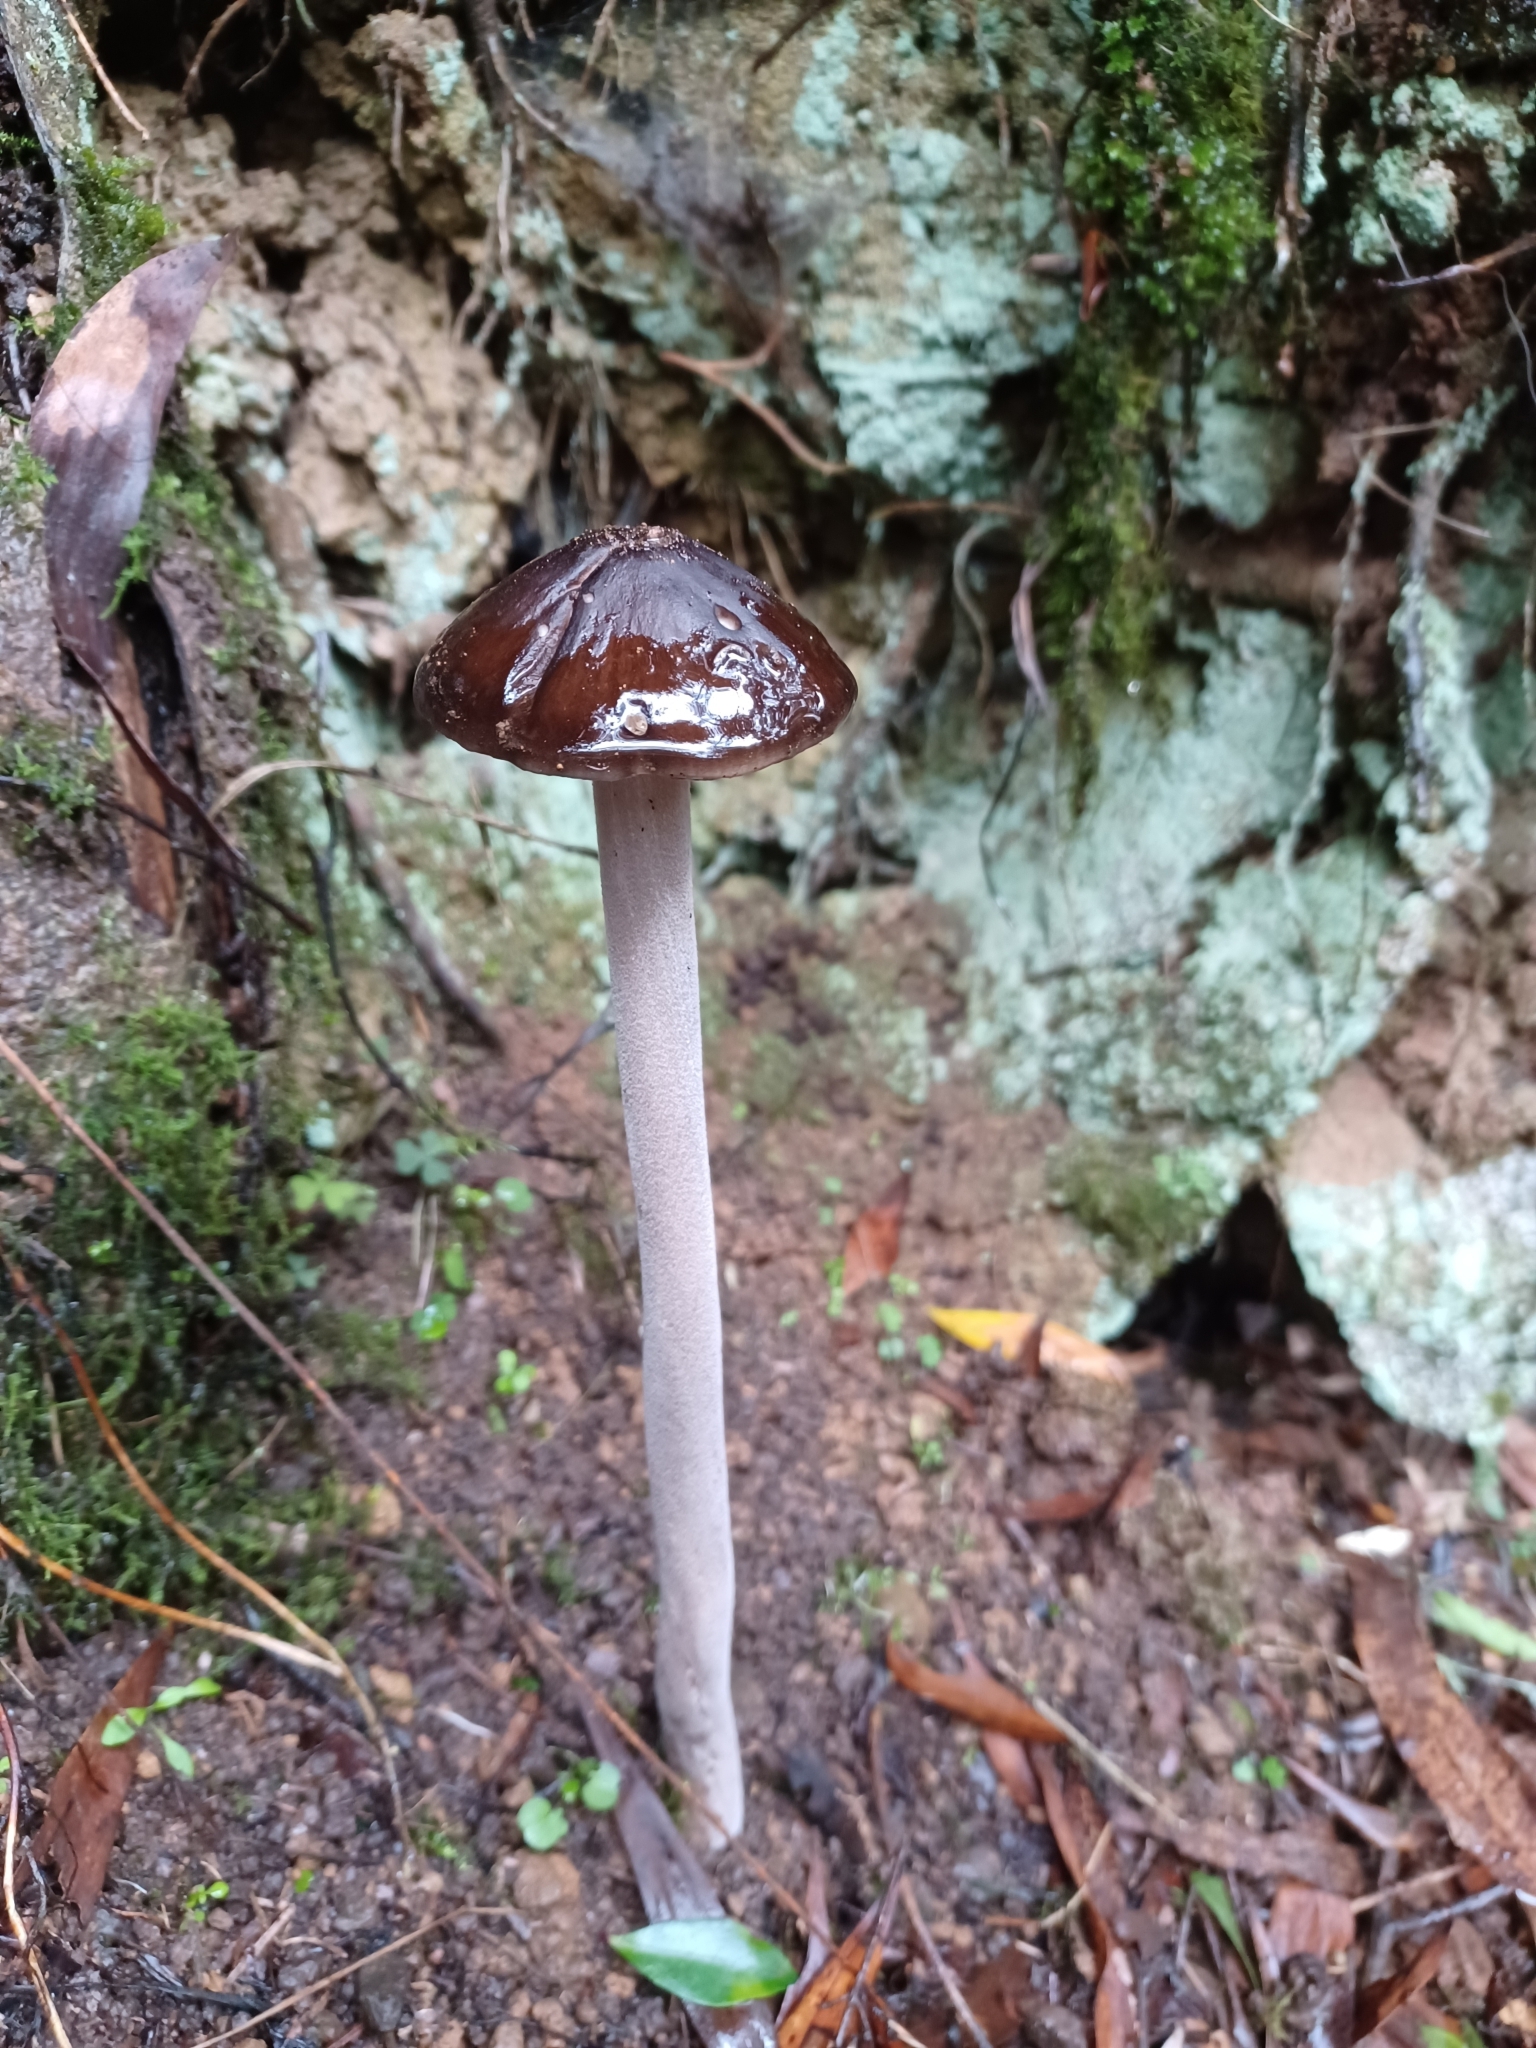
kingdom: Fungi
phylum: Basidiomycota
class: Agaricomycetes
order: Agaricales
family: Physalacriaceae
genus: Hymenopellis
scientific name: Hymenopellis gigaspora
